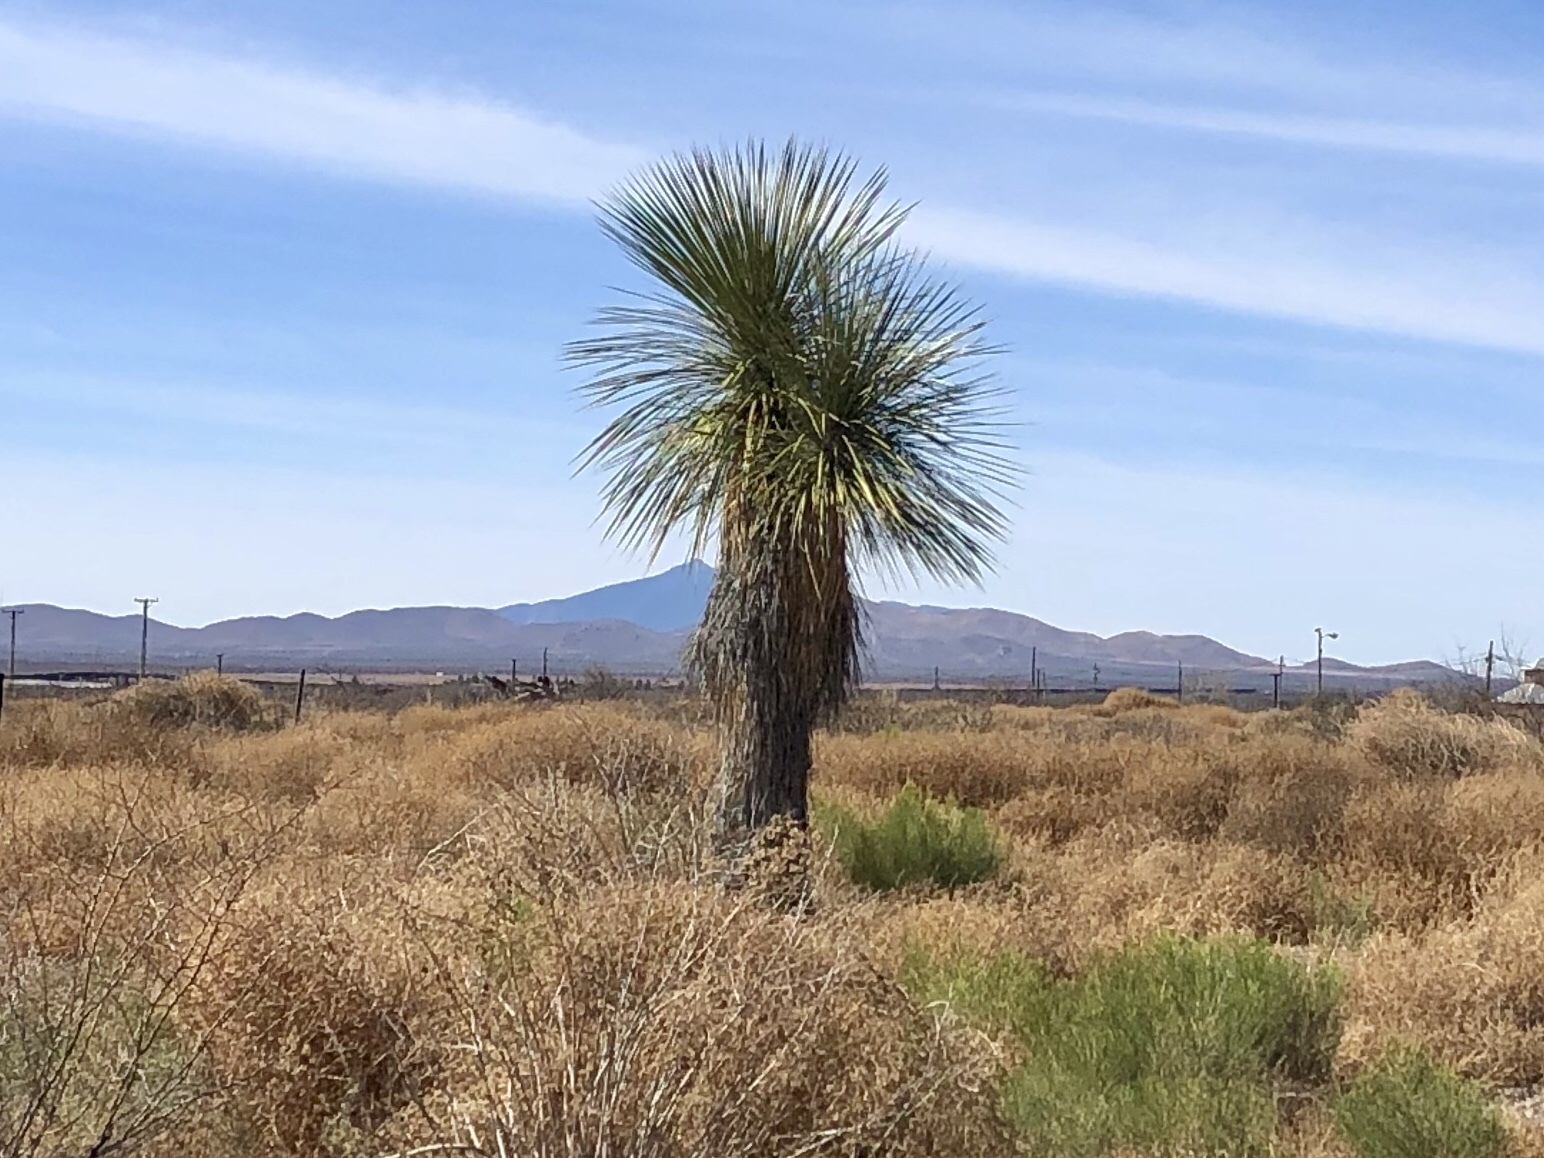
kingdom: Plantae
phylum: Tracheophyta
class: Liliopsida
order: Asparagales
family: Asparagaceae
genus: Yucca
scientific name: Yucca elata
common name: Palmella
